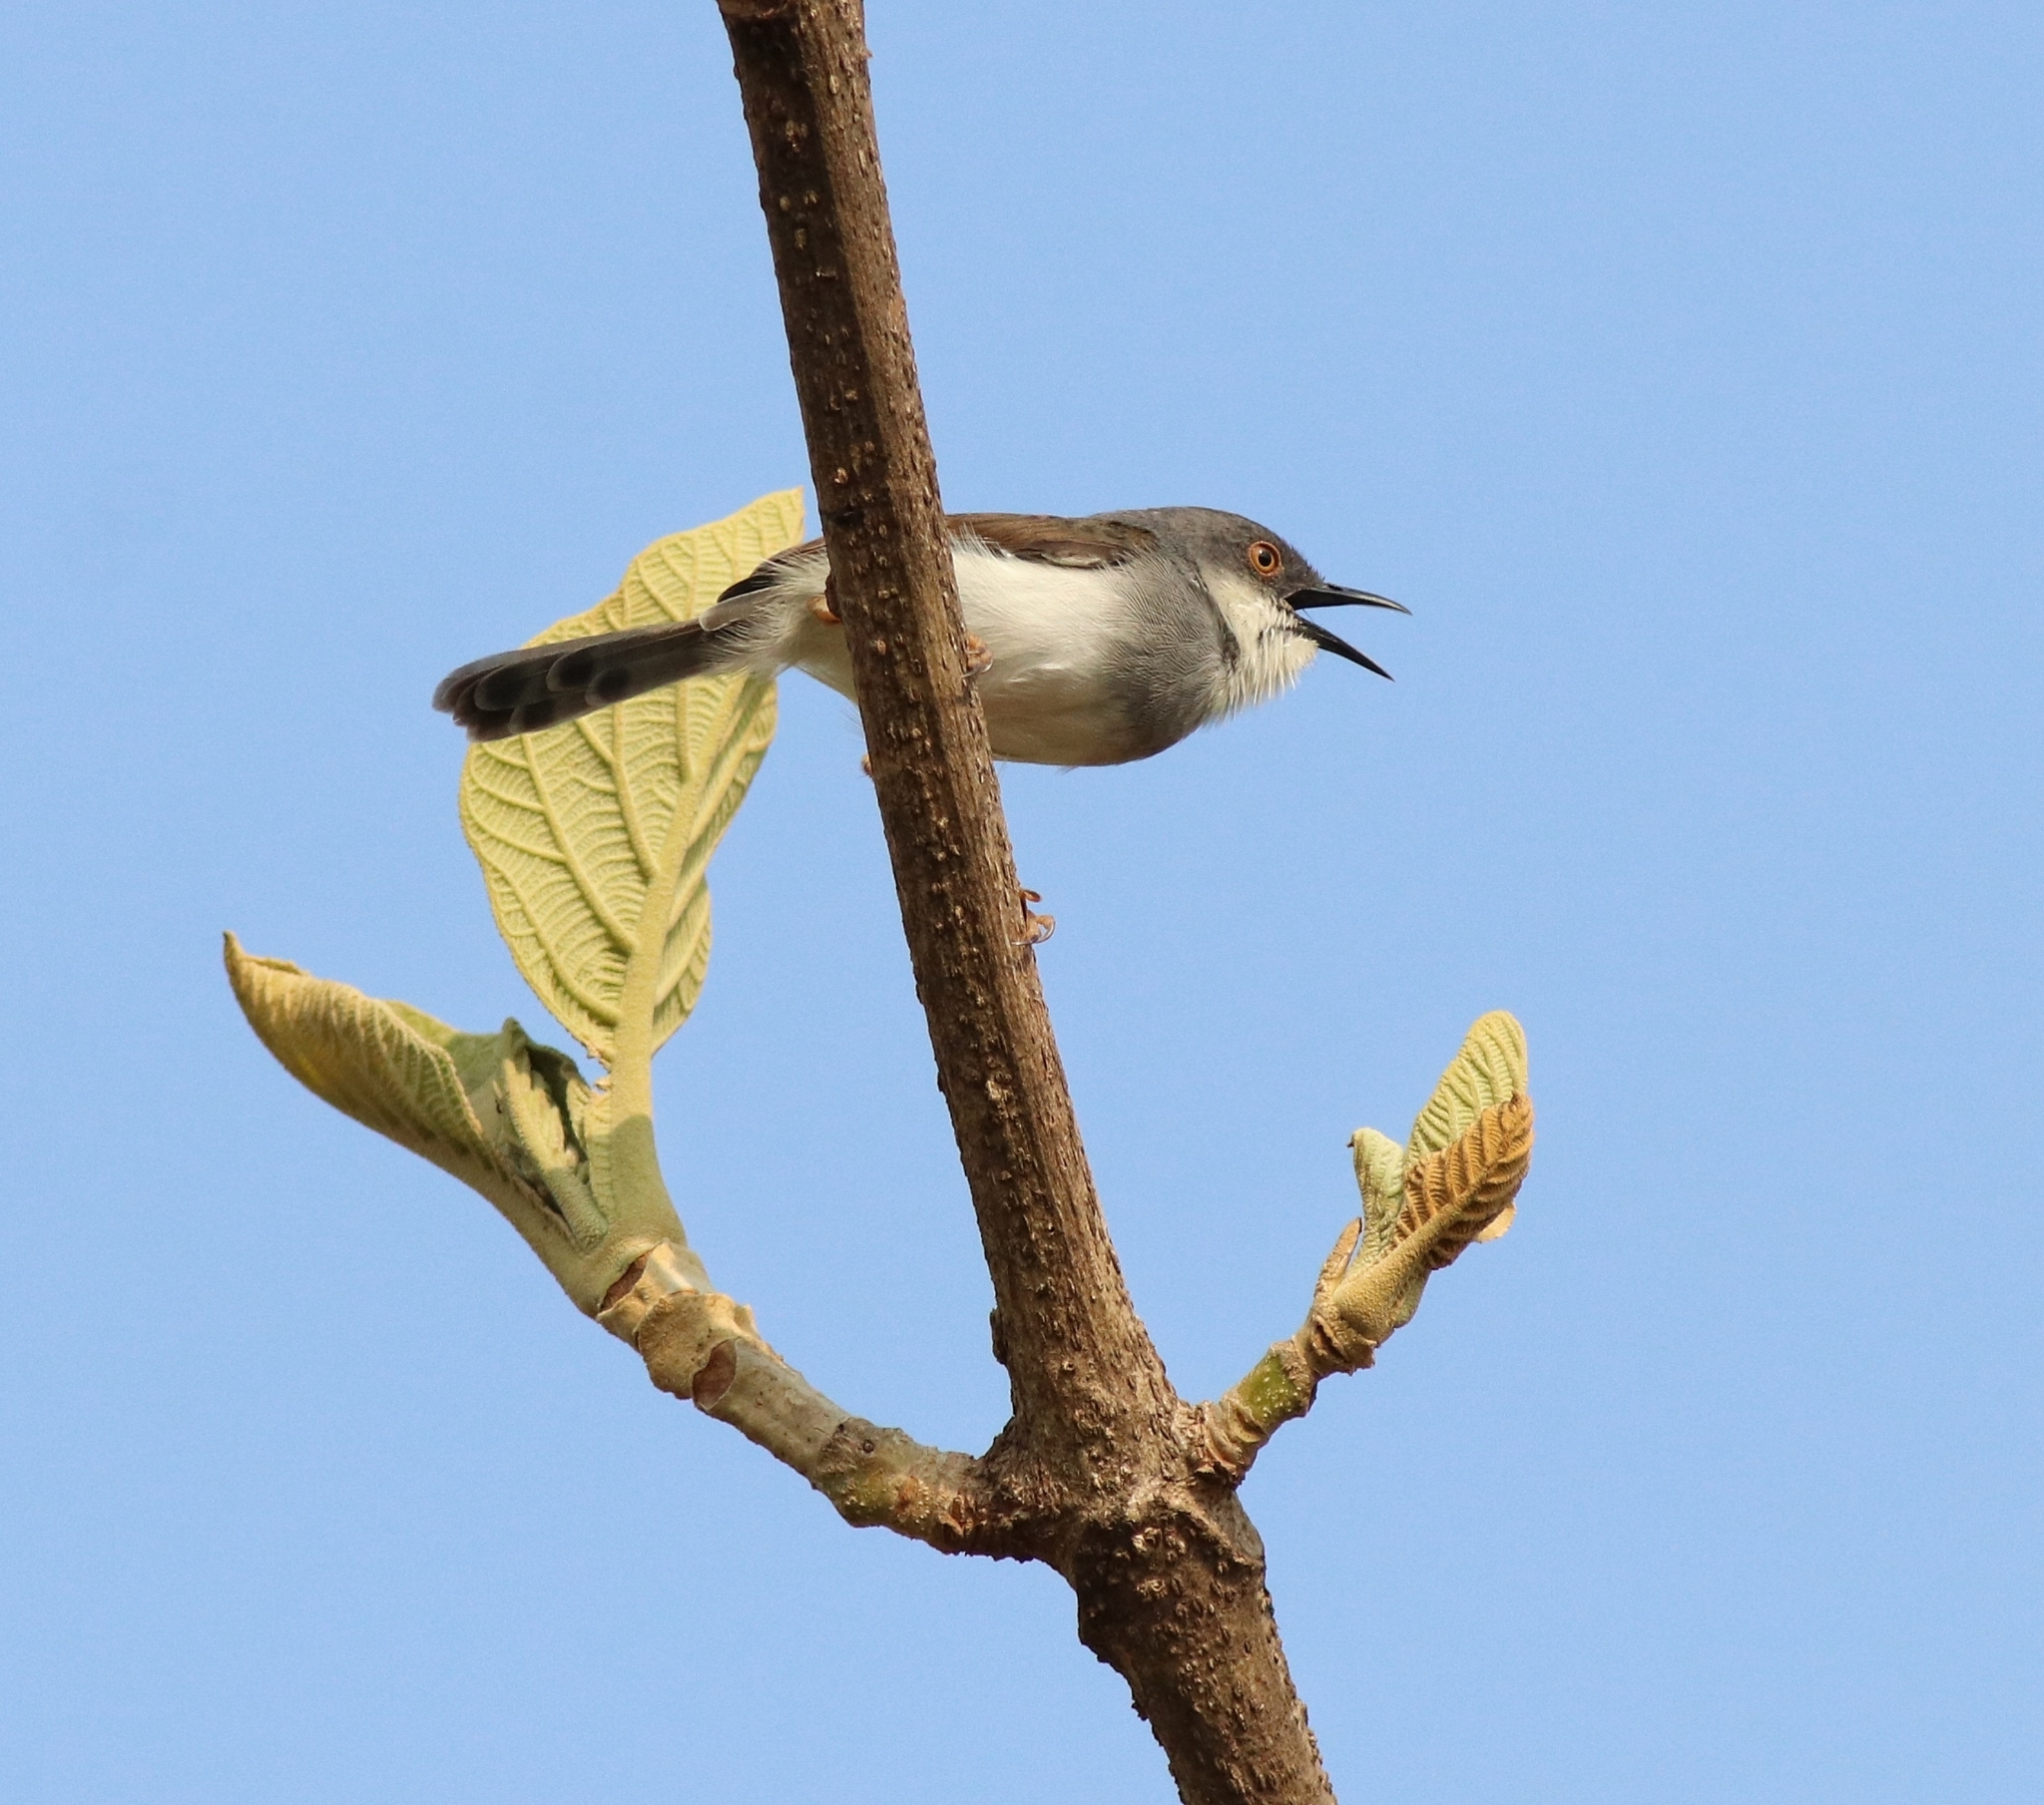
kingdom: Animalia
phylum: Chordata
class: Aves
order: Passeriformes
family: Cisticolidae
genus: Prinia
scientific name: Prinia hodgsonii
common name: Grey-breasted prinia
